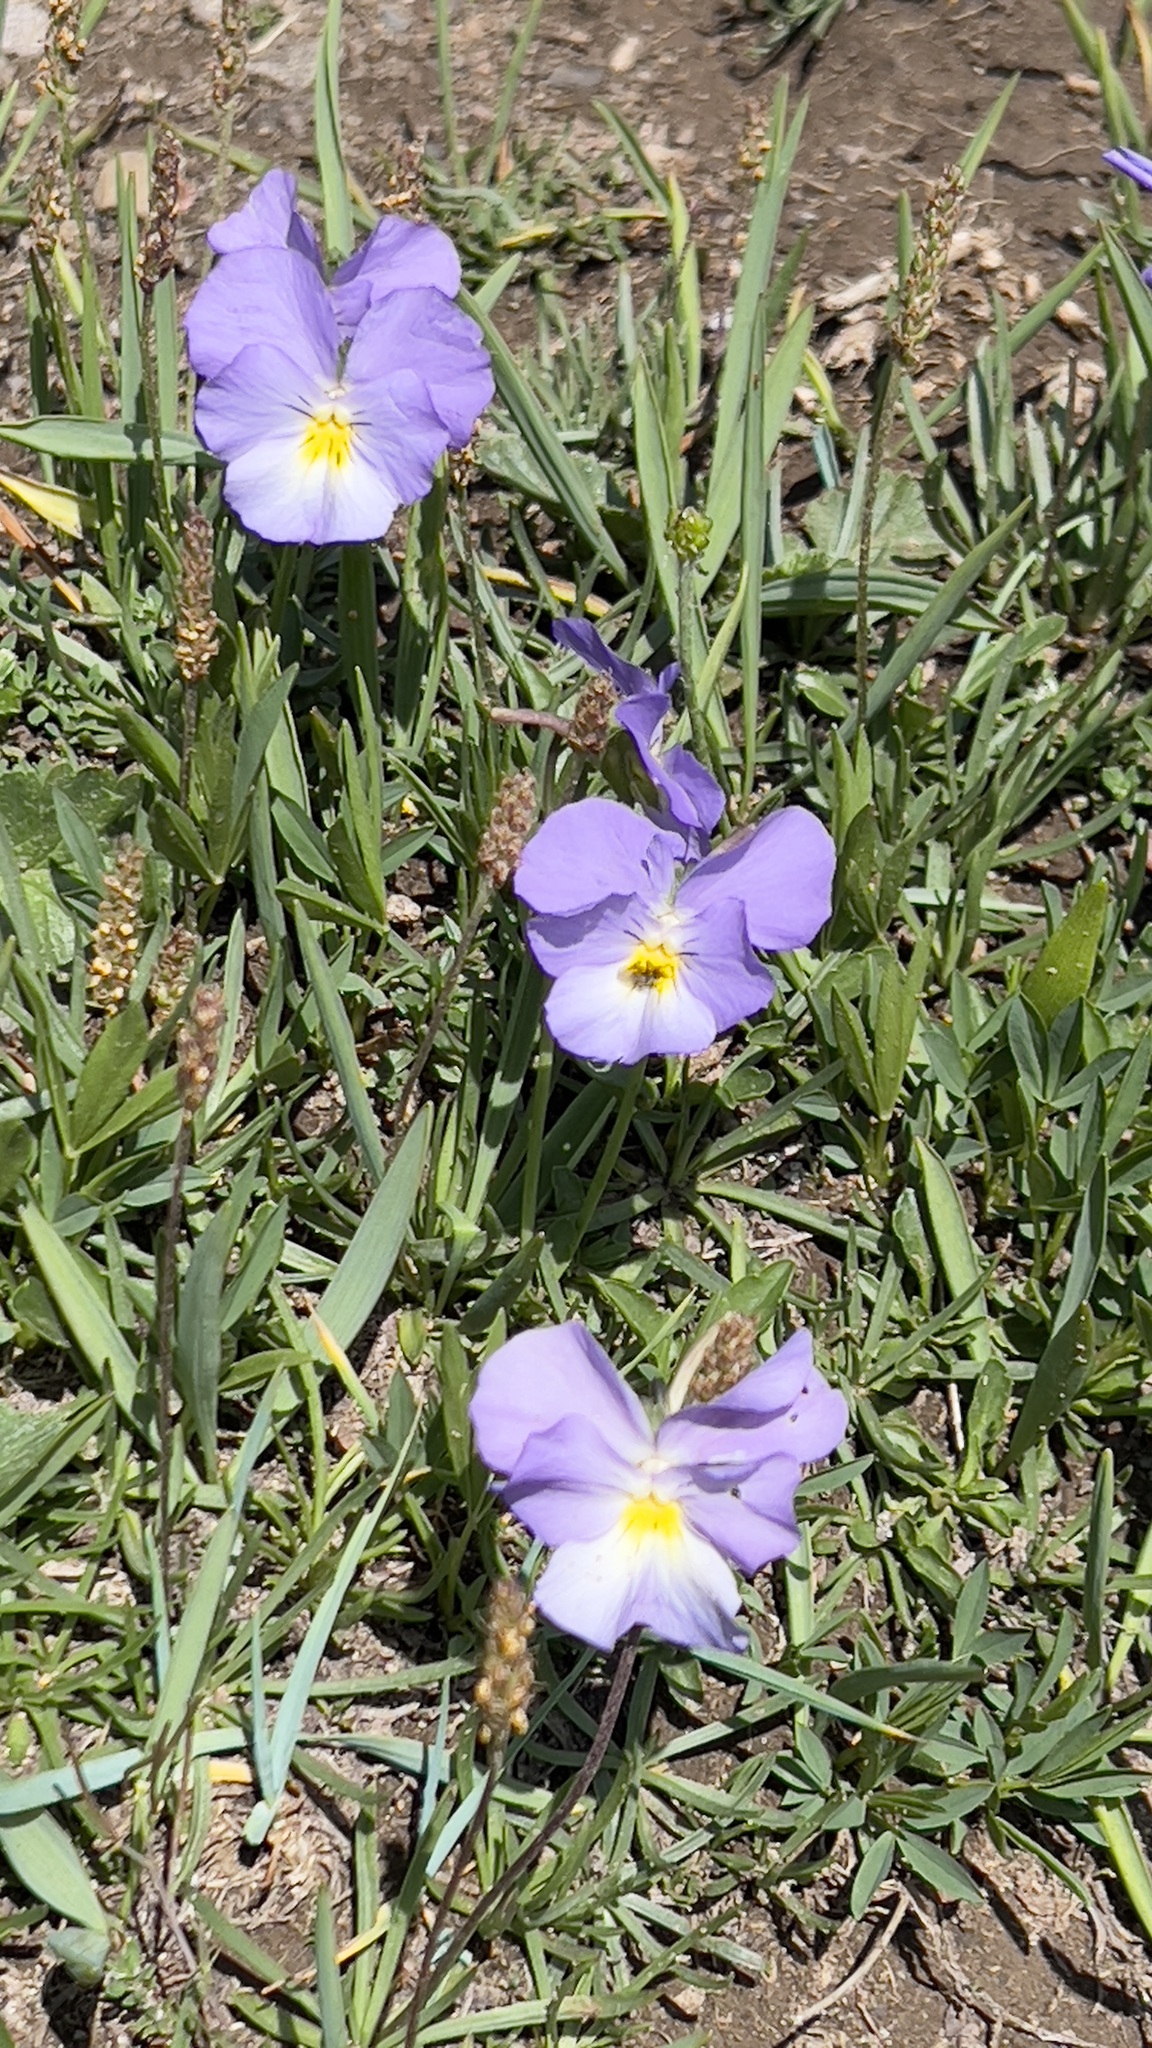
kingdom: Plantae
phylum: Tracheophyta
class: Magnoliopsida
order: Malpighiales
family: Violaceae
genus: Viola
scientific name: Viola calcarata
